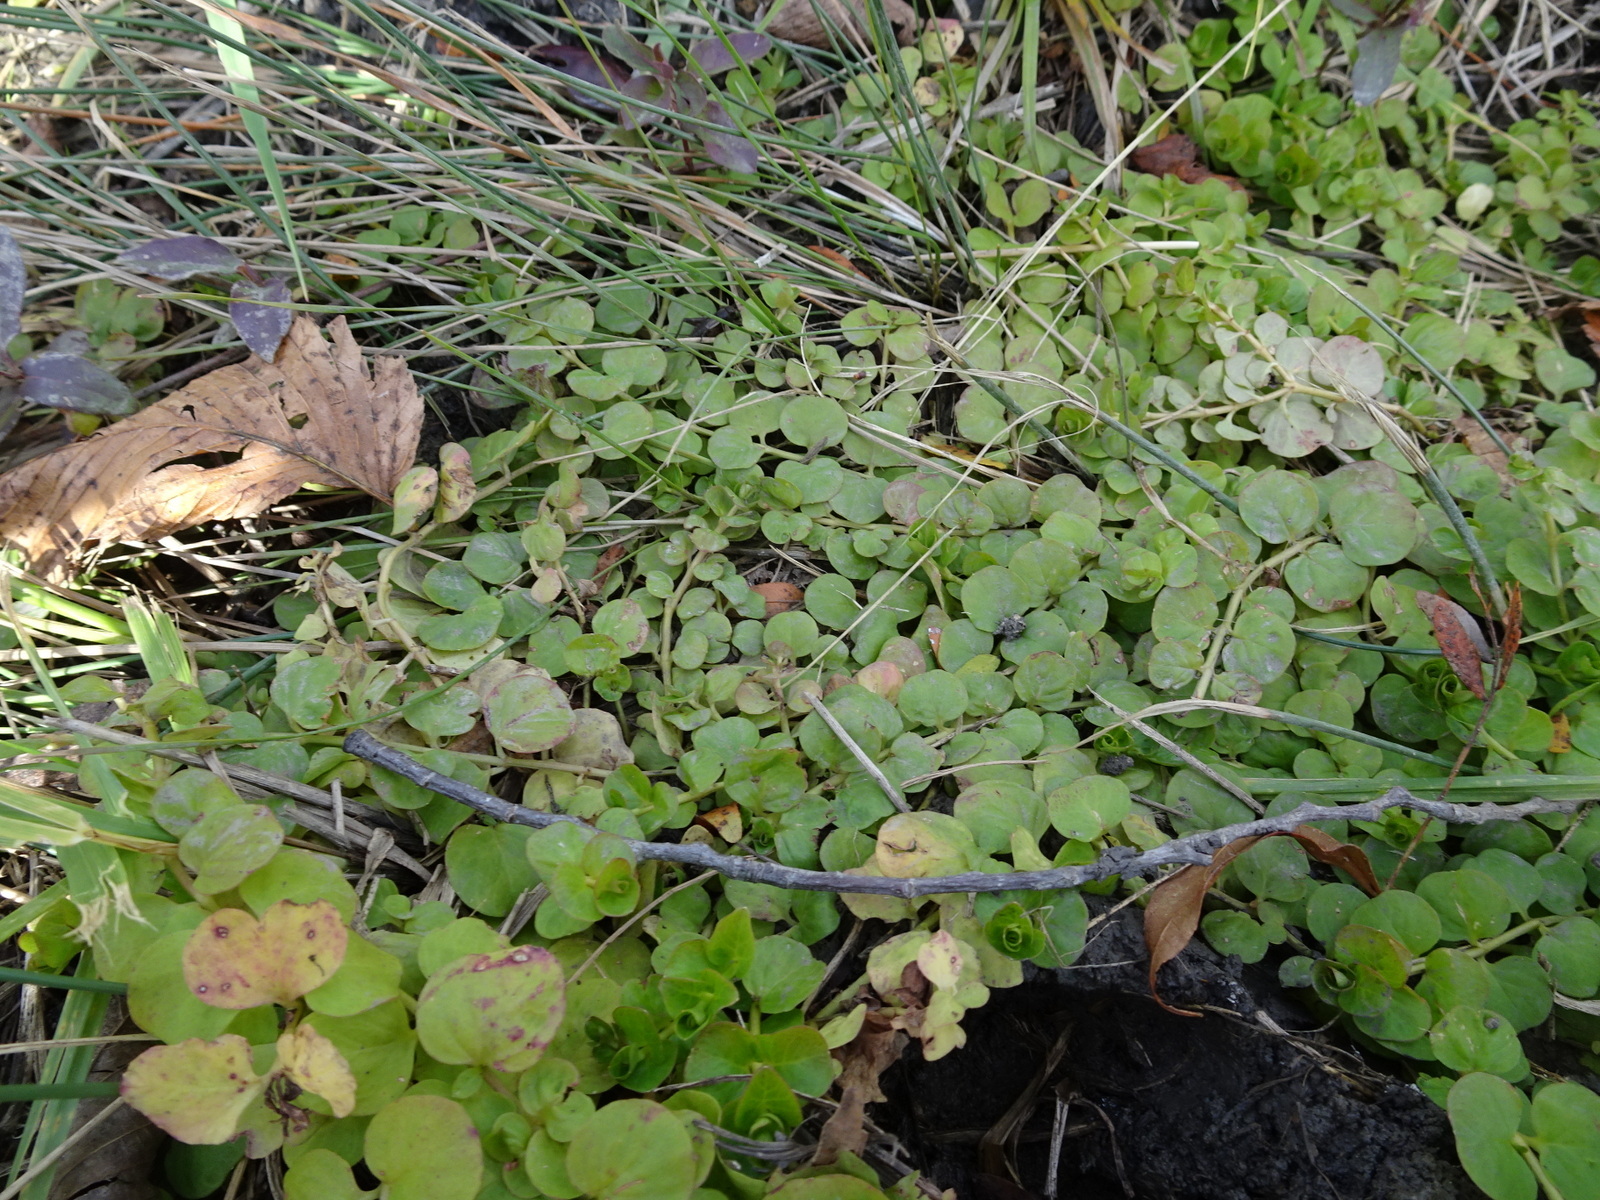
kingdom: Plantae
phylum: Tracheophyta
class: Magnoliopsida
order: Ericales
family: Primulaceae
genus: Lysimachia
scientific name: Lysimachia nummularia
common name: Moneywort
